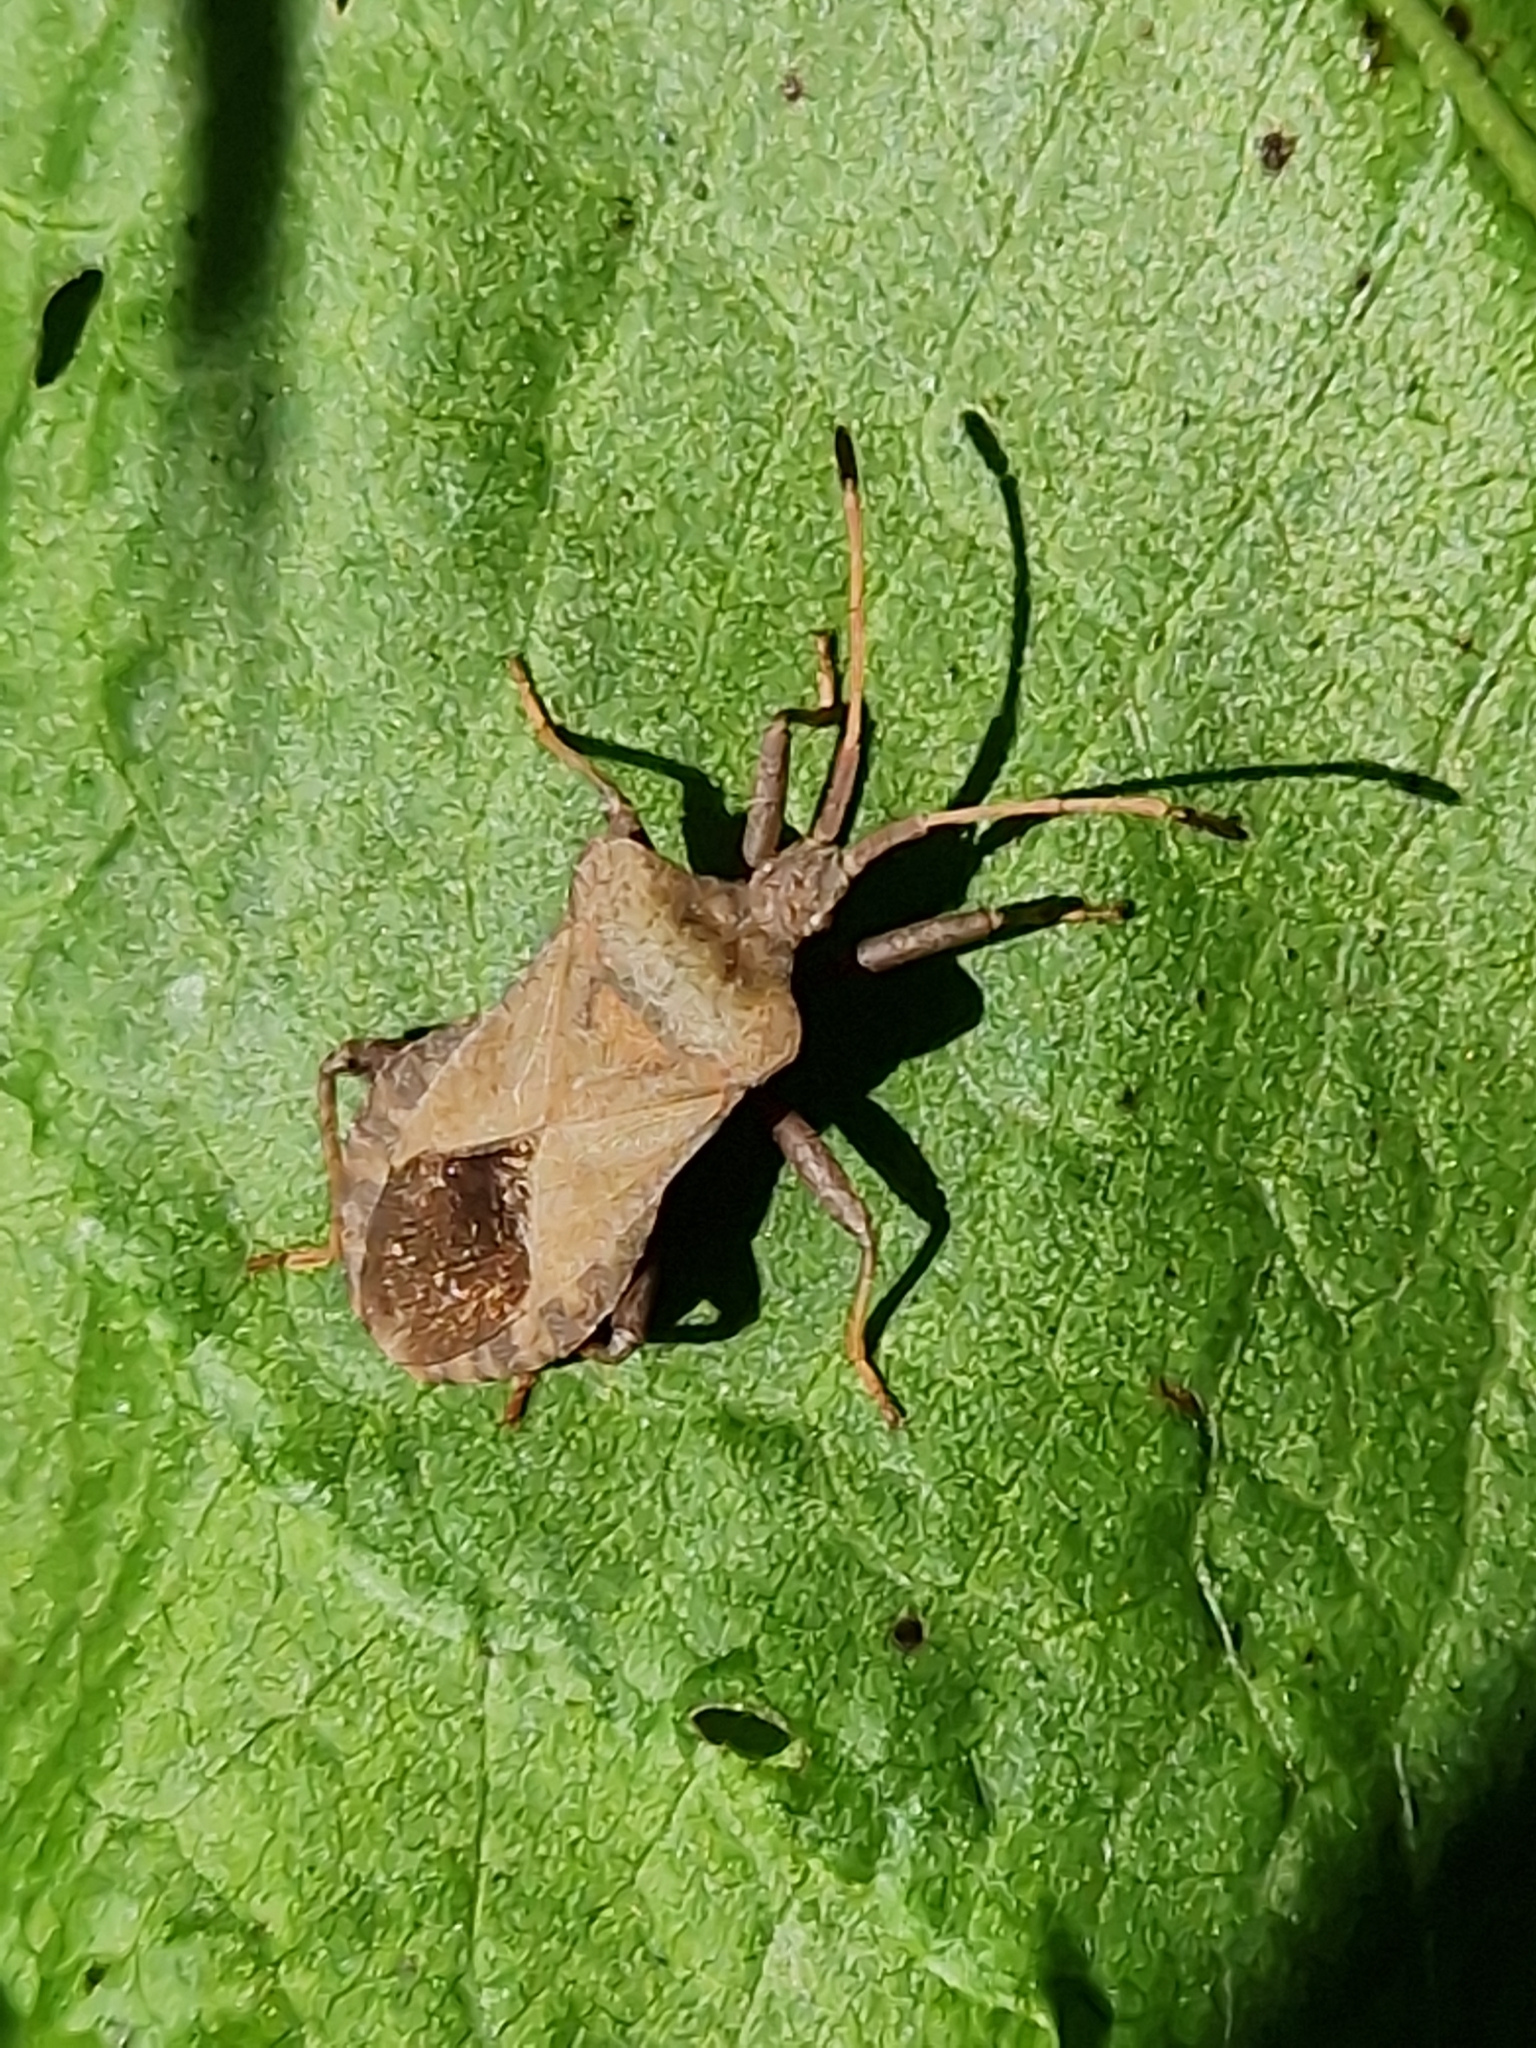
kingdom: Animalia
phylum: Arthropoda
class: Insecta
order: Hemiptera
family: Coreidae
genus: Coreus
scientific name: Coreus marginatus
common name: Dock bug
